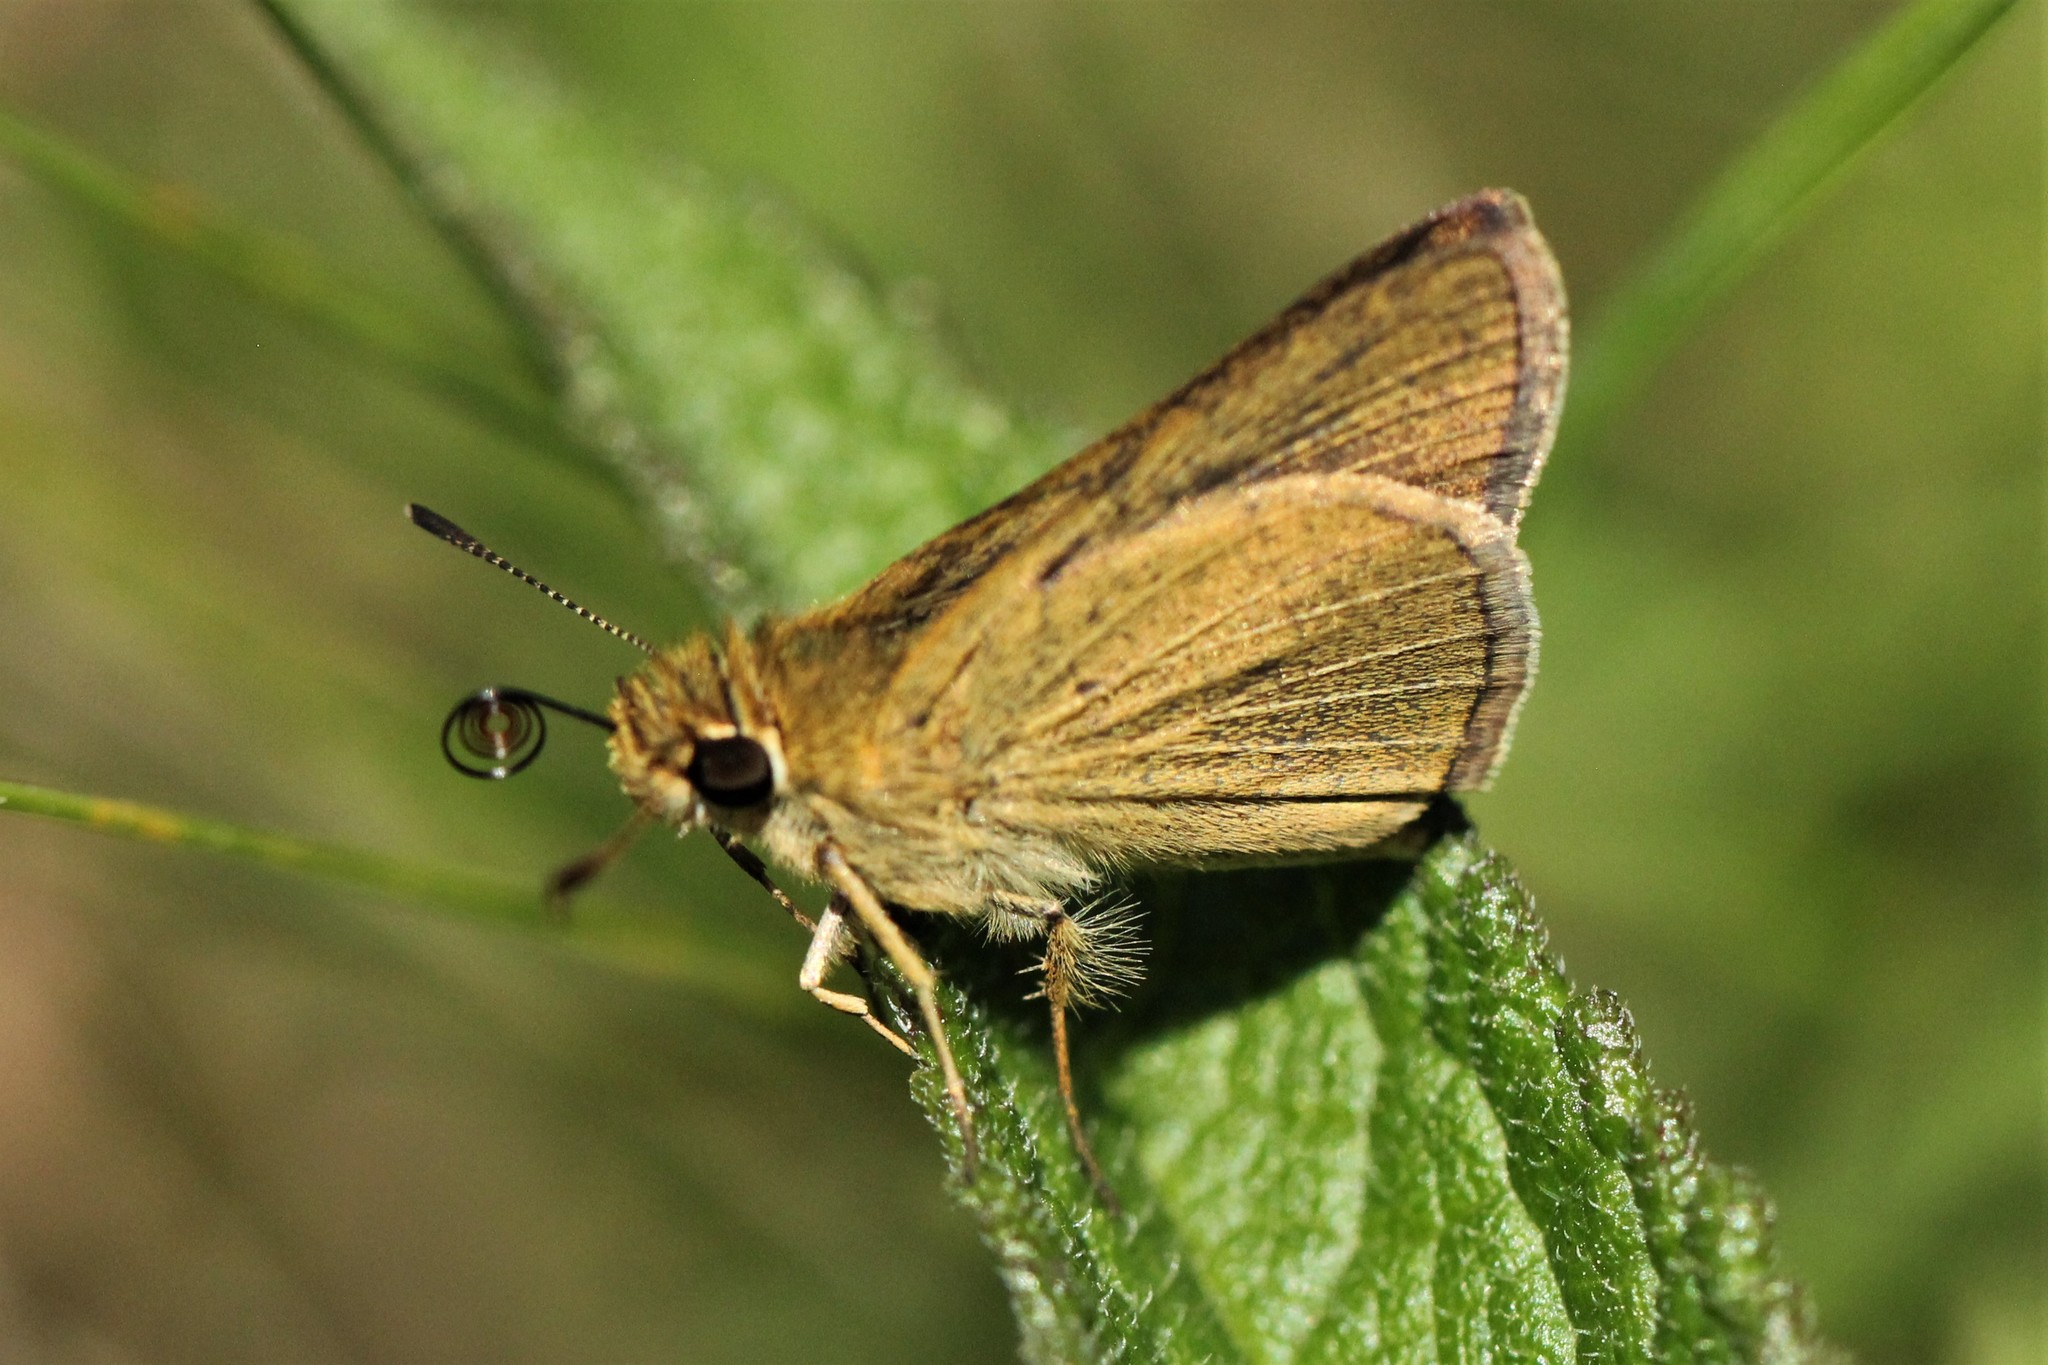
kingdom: Animalia
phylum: Arthropoda
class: Insecta
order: Lepidoptera
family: Hesperiidae
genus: Nastra
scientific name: Nastra lherminier
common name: Swarthy skipper
